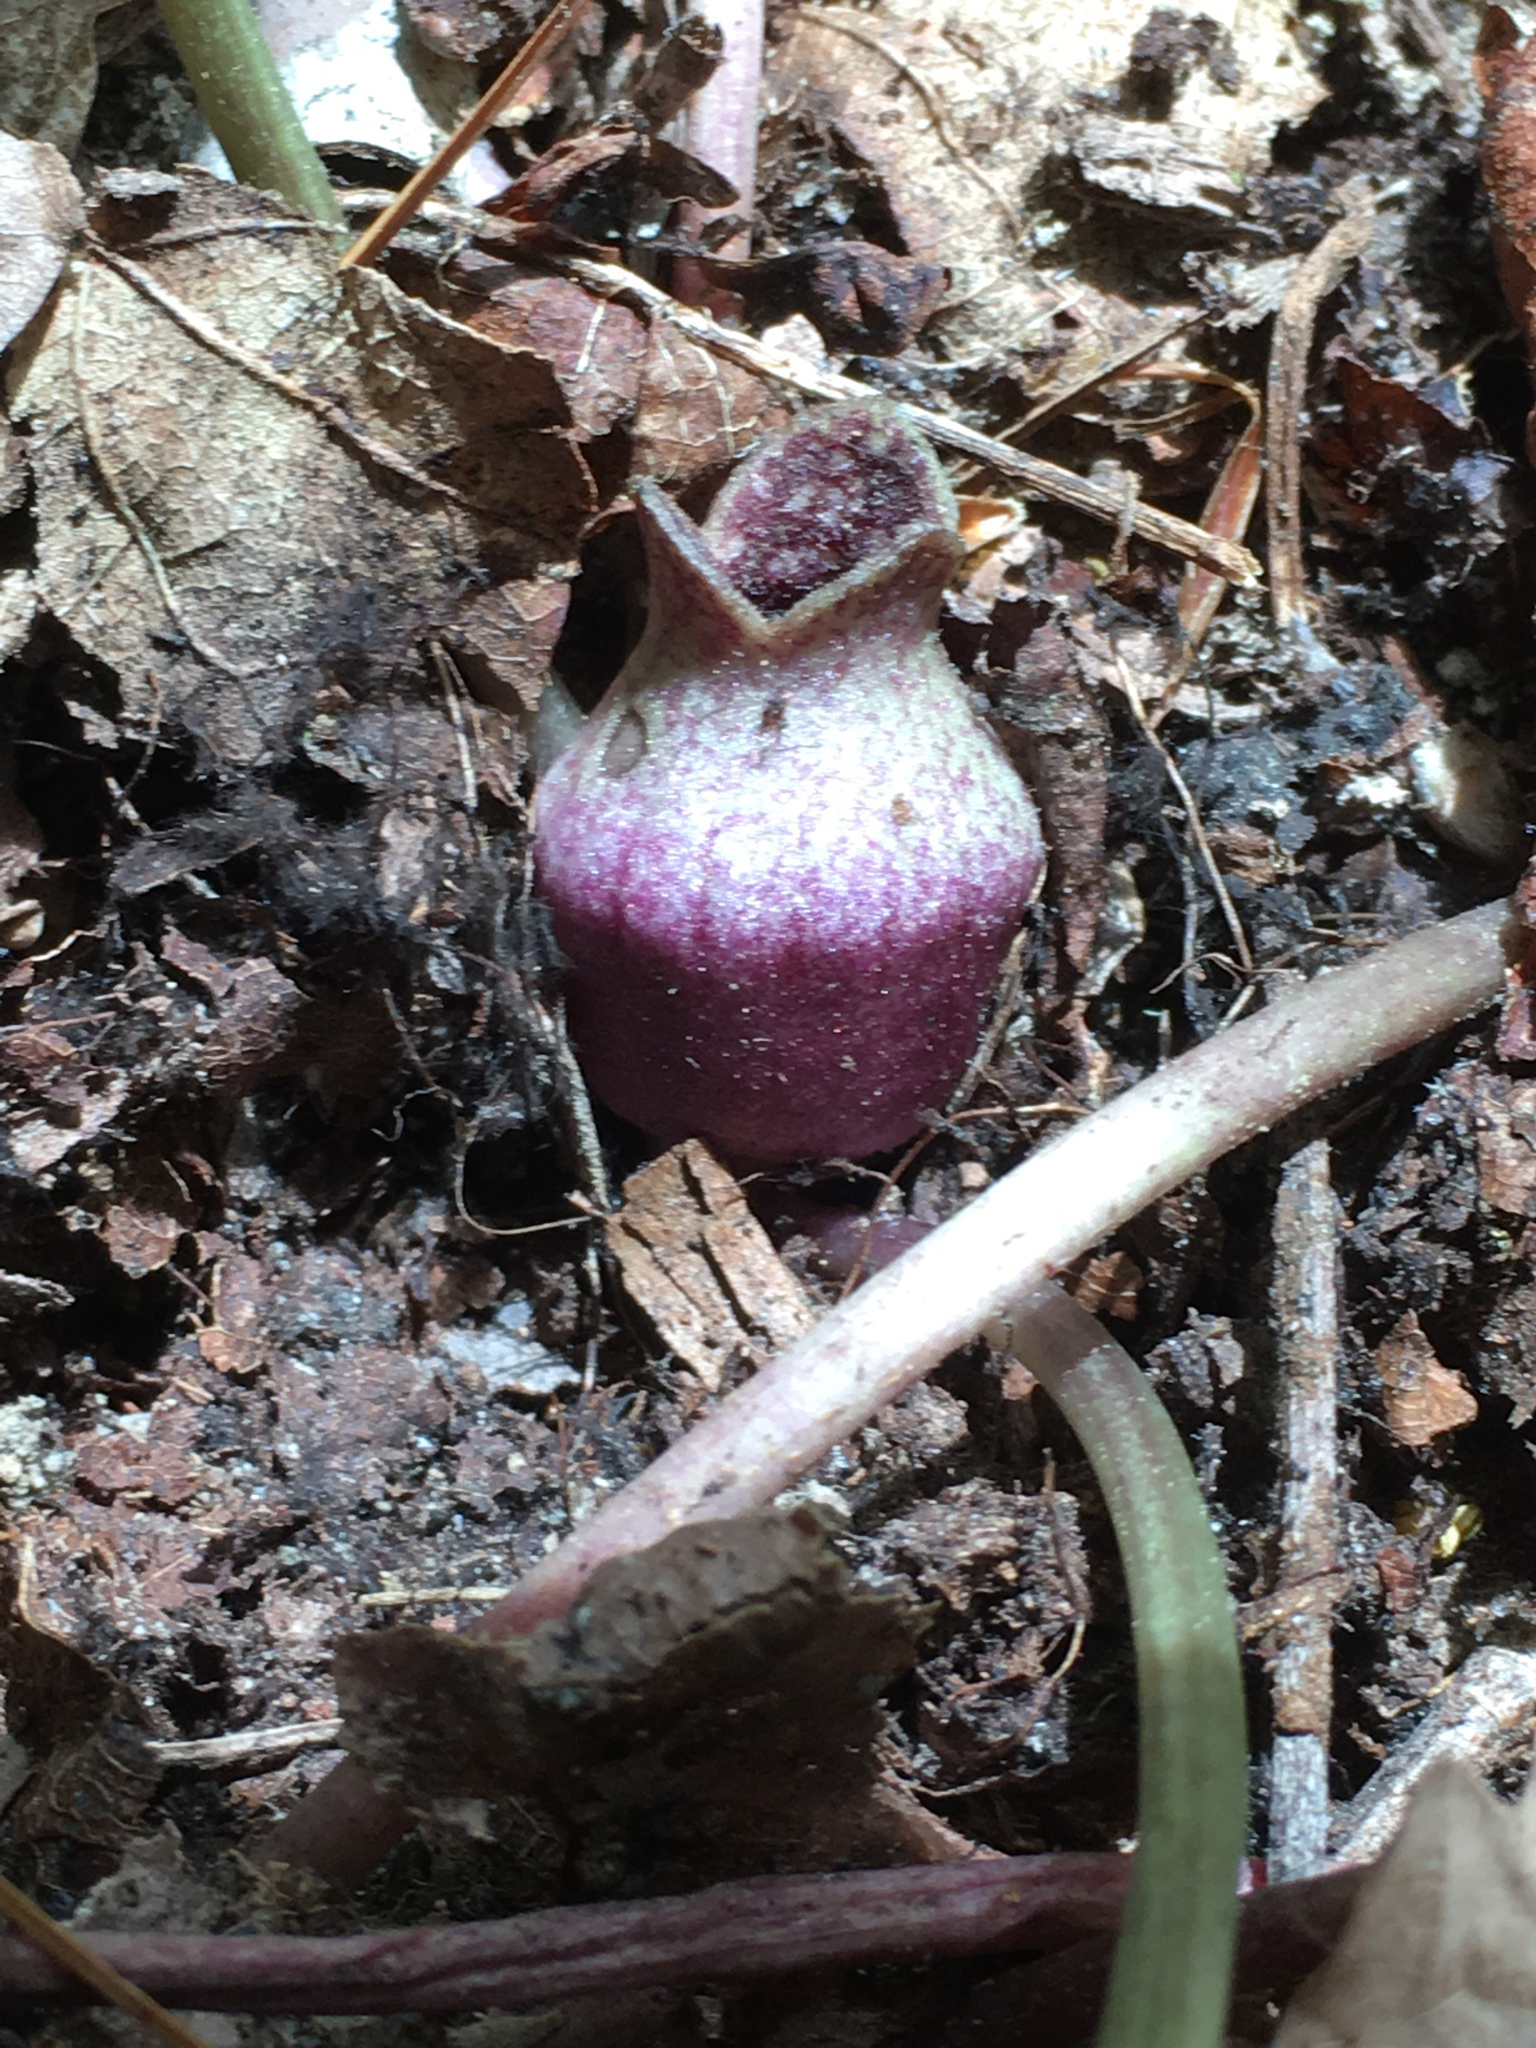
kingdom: Plantae
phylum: Tracheophyta
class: Magnoliopsida
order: Piperales
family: Aristolochiaceae
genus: Hexastylis
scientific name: Hexastylis rhombiformis
